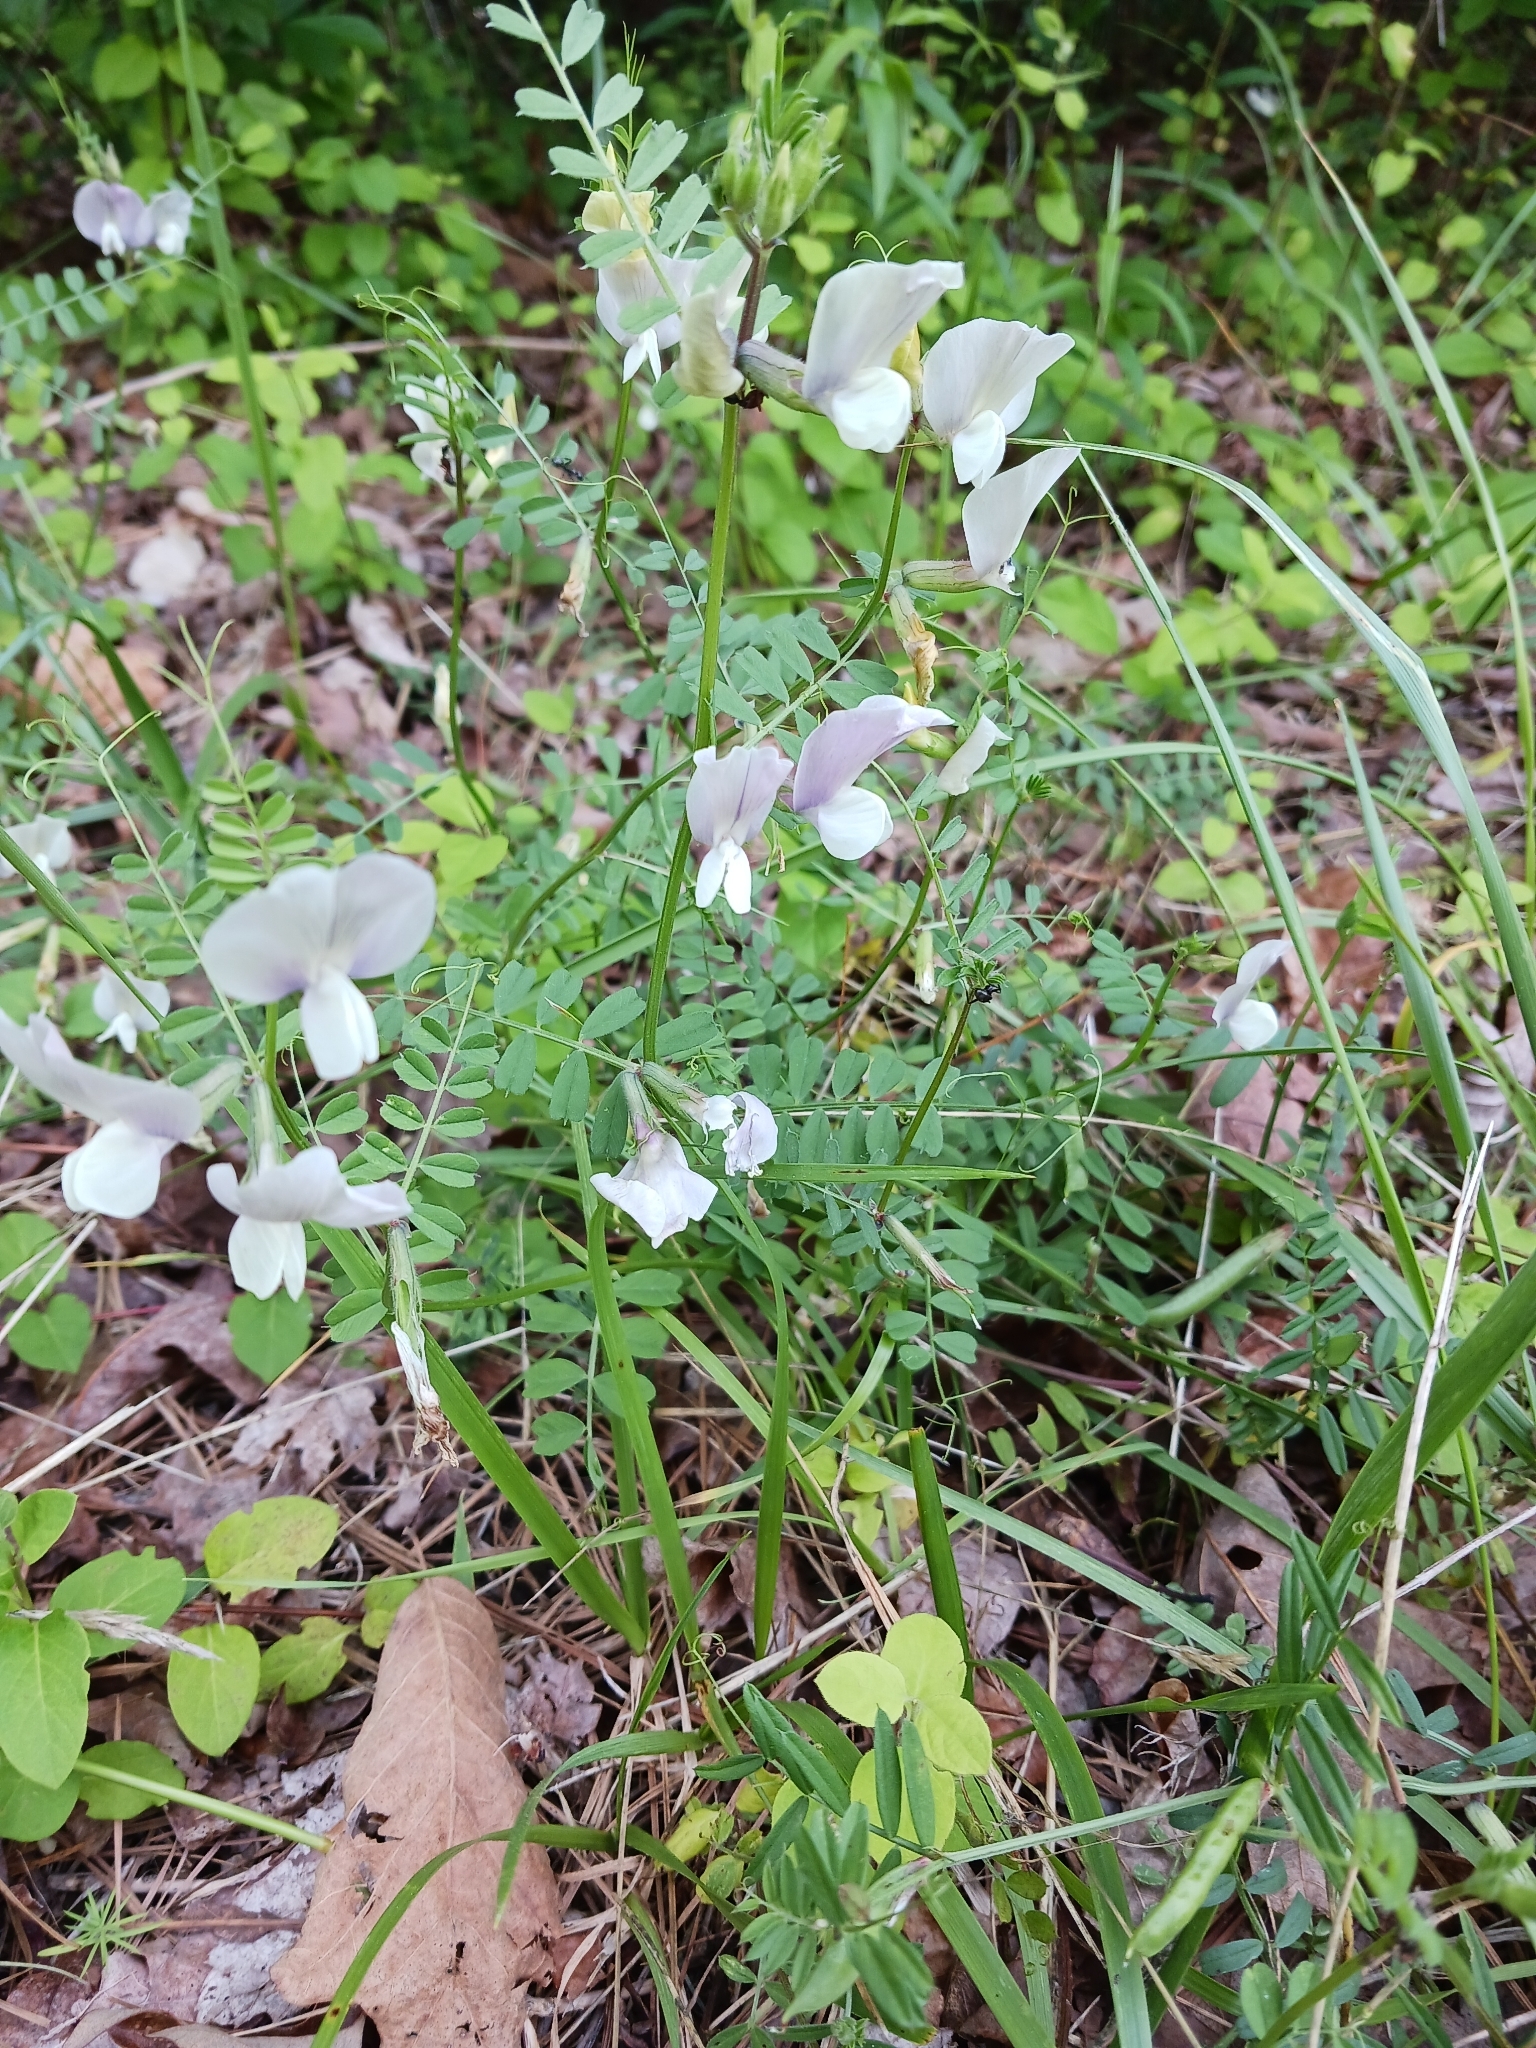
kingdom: Plantae
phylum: Tracheophyta
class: Magnoliopsida
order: Fabales
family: Fabaceae
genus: Vicia
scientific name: Vicia grandiflora
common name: Large yellow vetch
